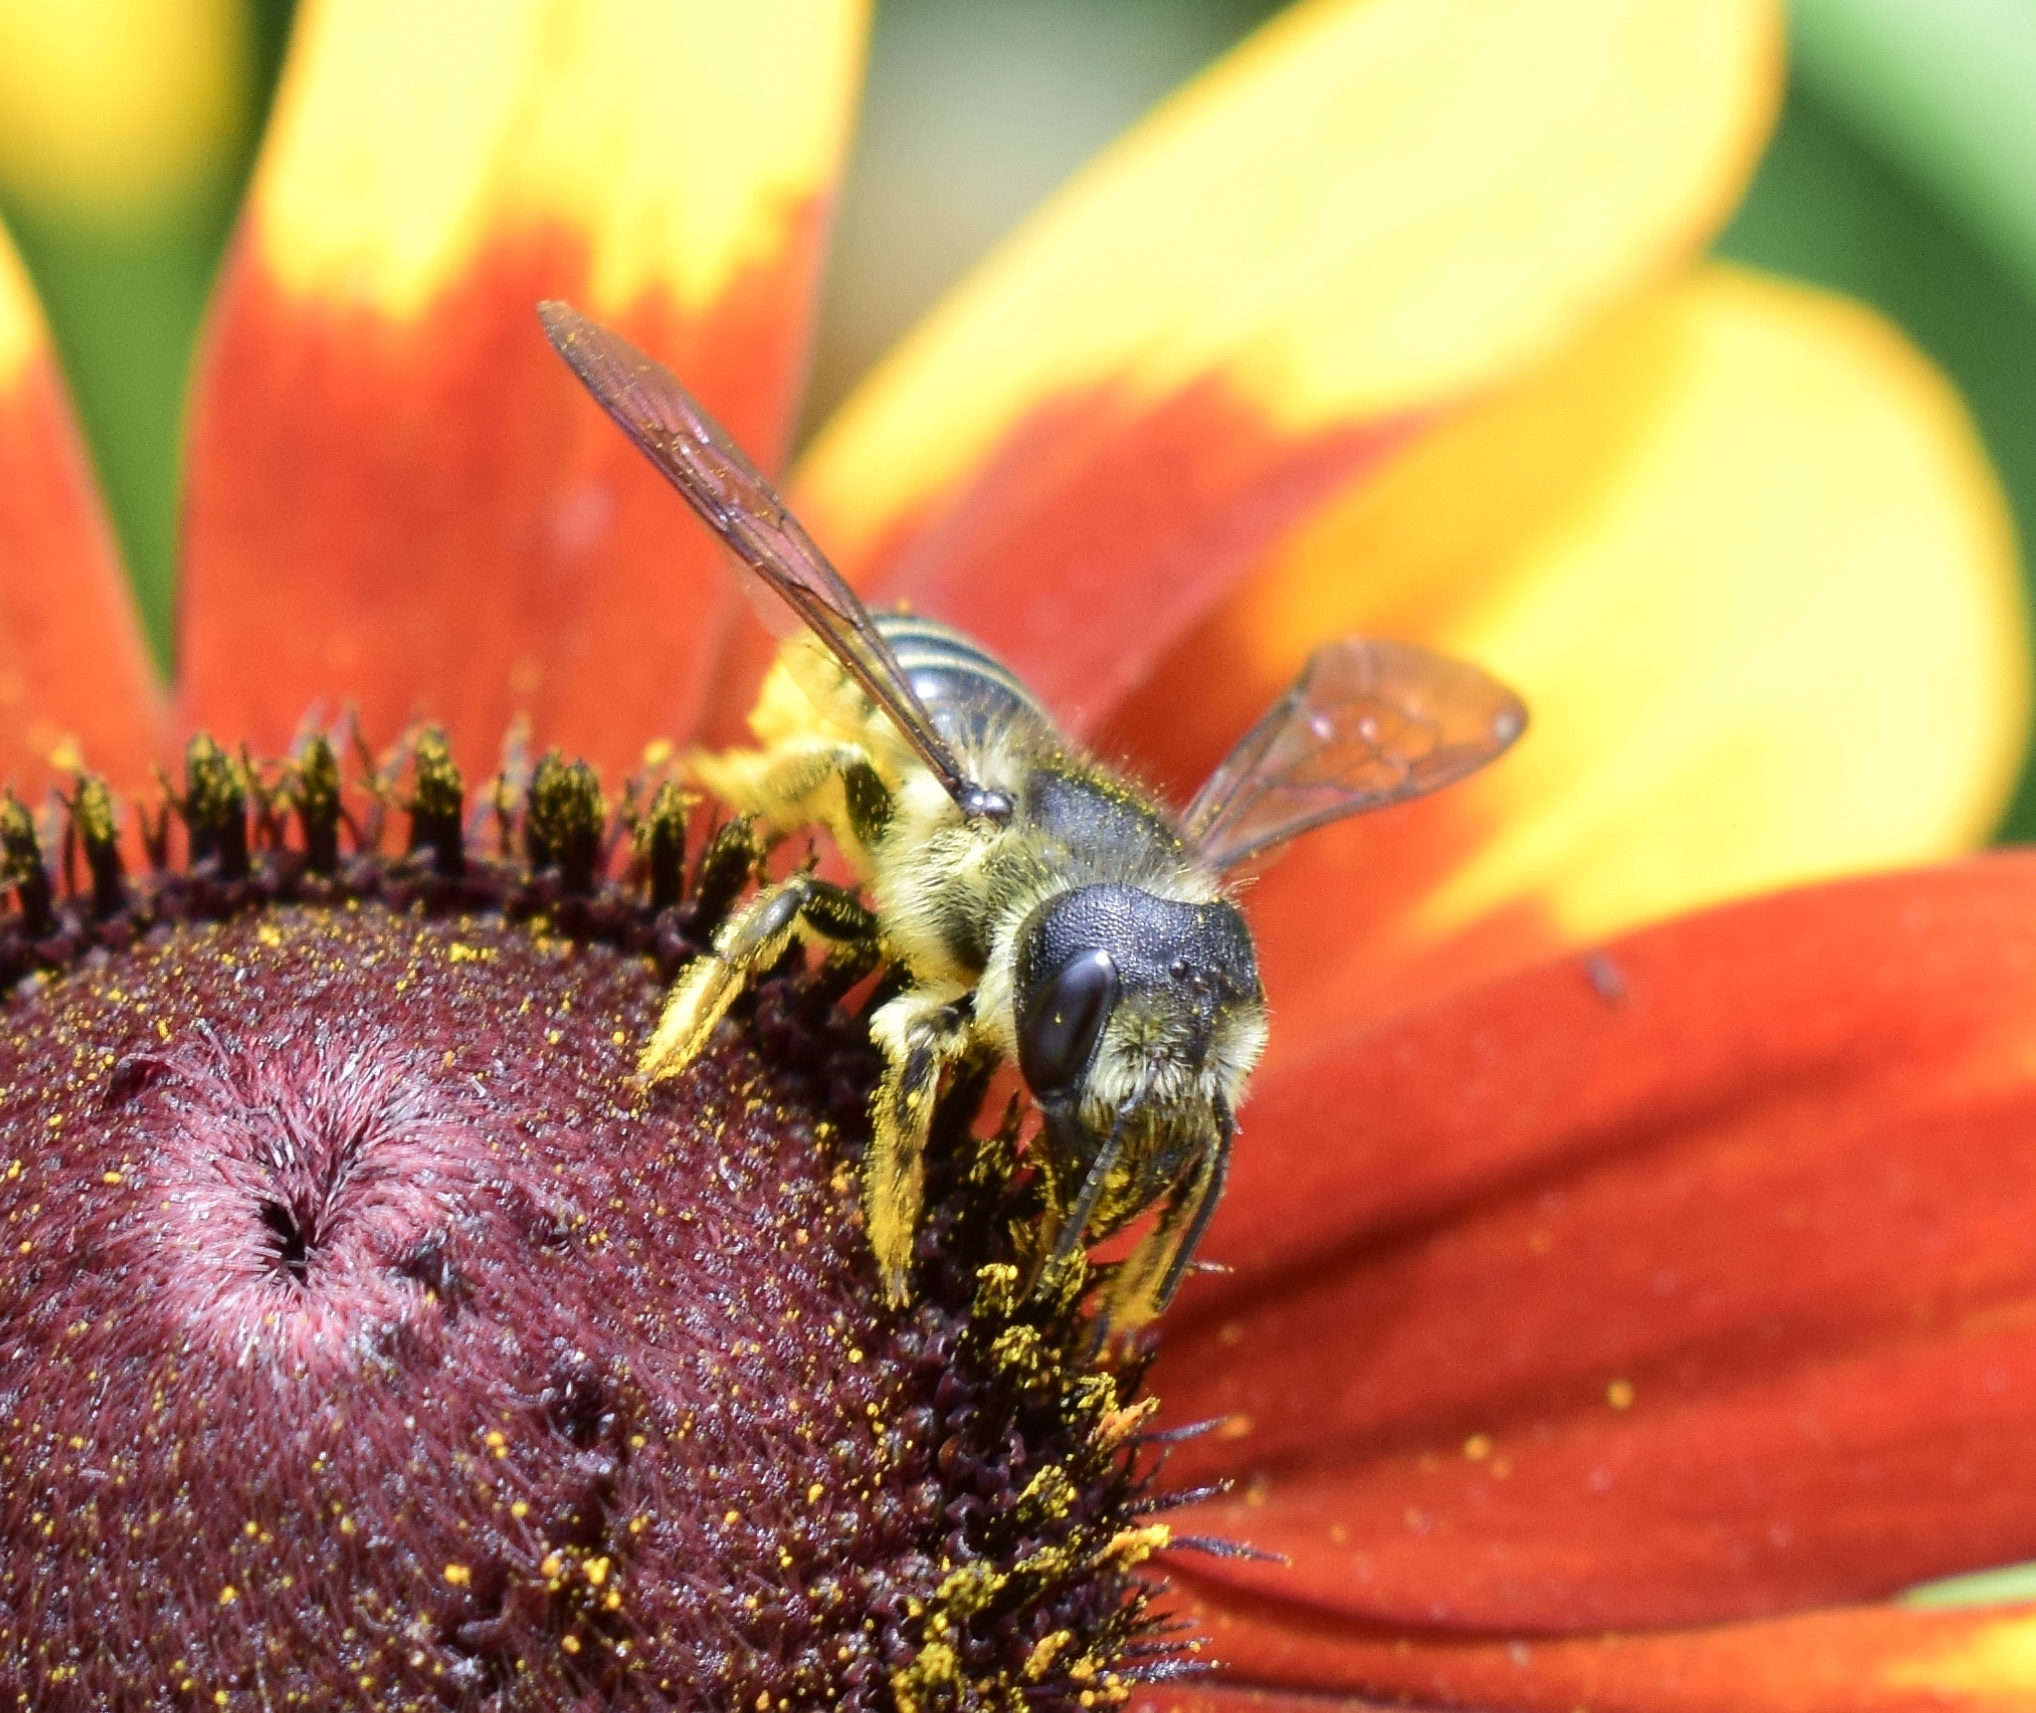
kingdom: Animalia
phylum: Arthropoda
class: Insecta
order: Hymenoptera
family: Megachilidae
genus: Megachile
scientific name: Megachile pugnata
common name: Pugnacious leafcutter bee
